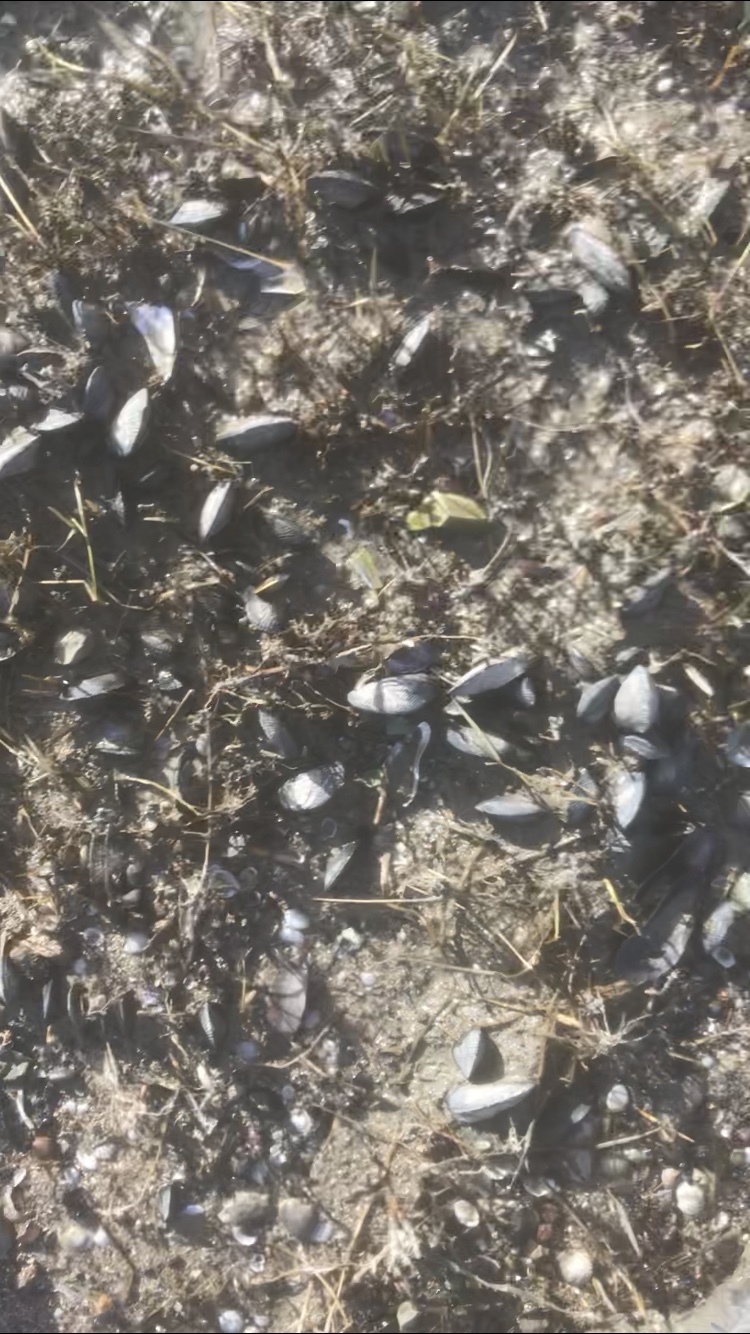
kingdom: Animalia
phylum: Mollusca
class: Bivalvia
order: Mytilida
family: Mytilidae
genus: Geukensia
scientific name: Geukensia demissa
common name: Ribbed mussel
